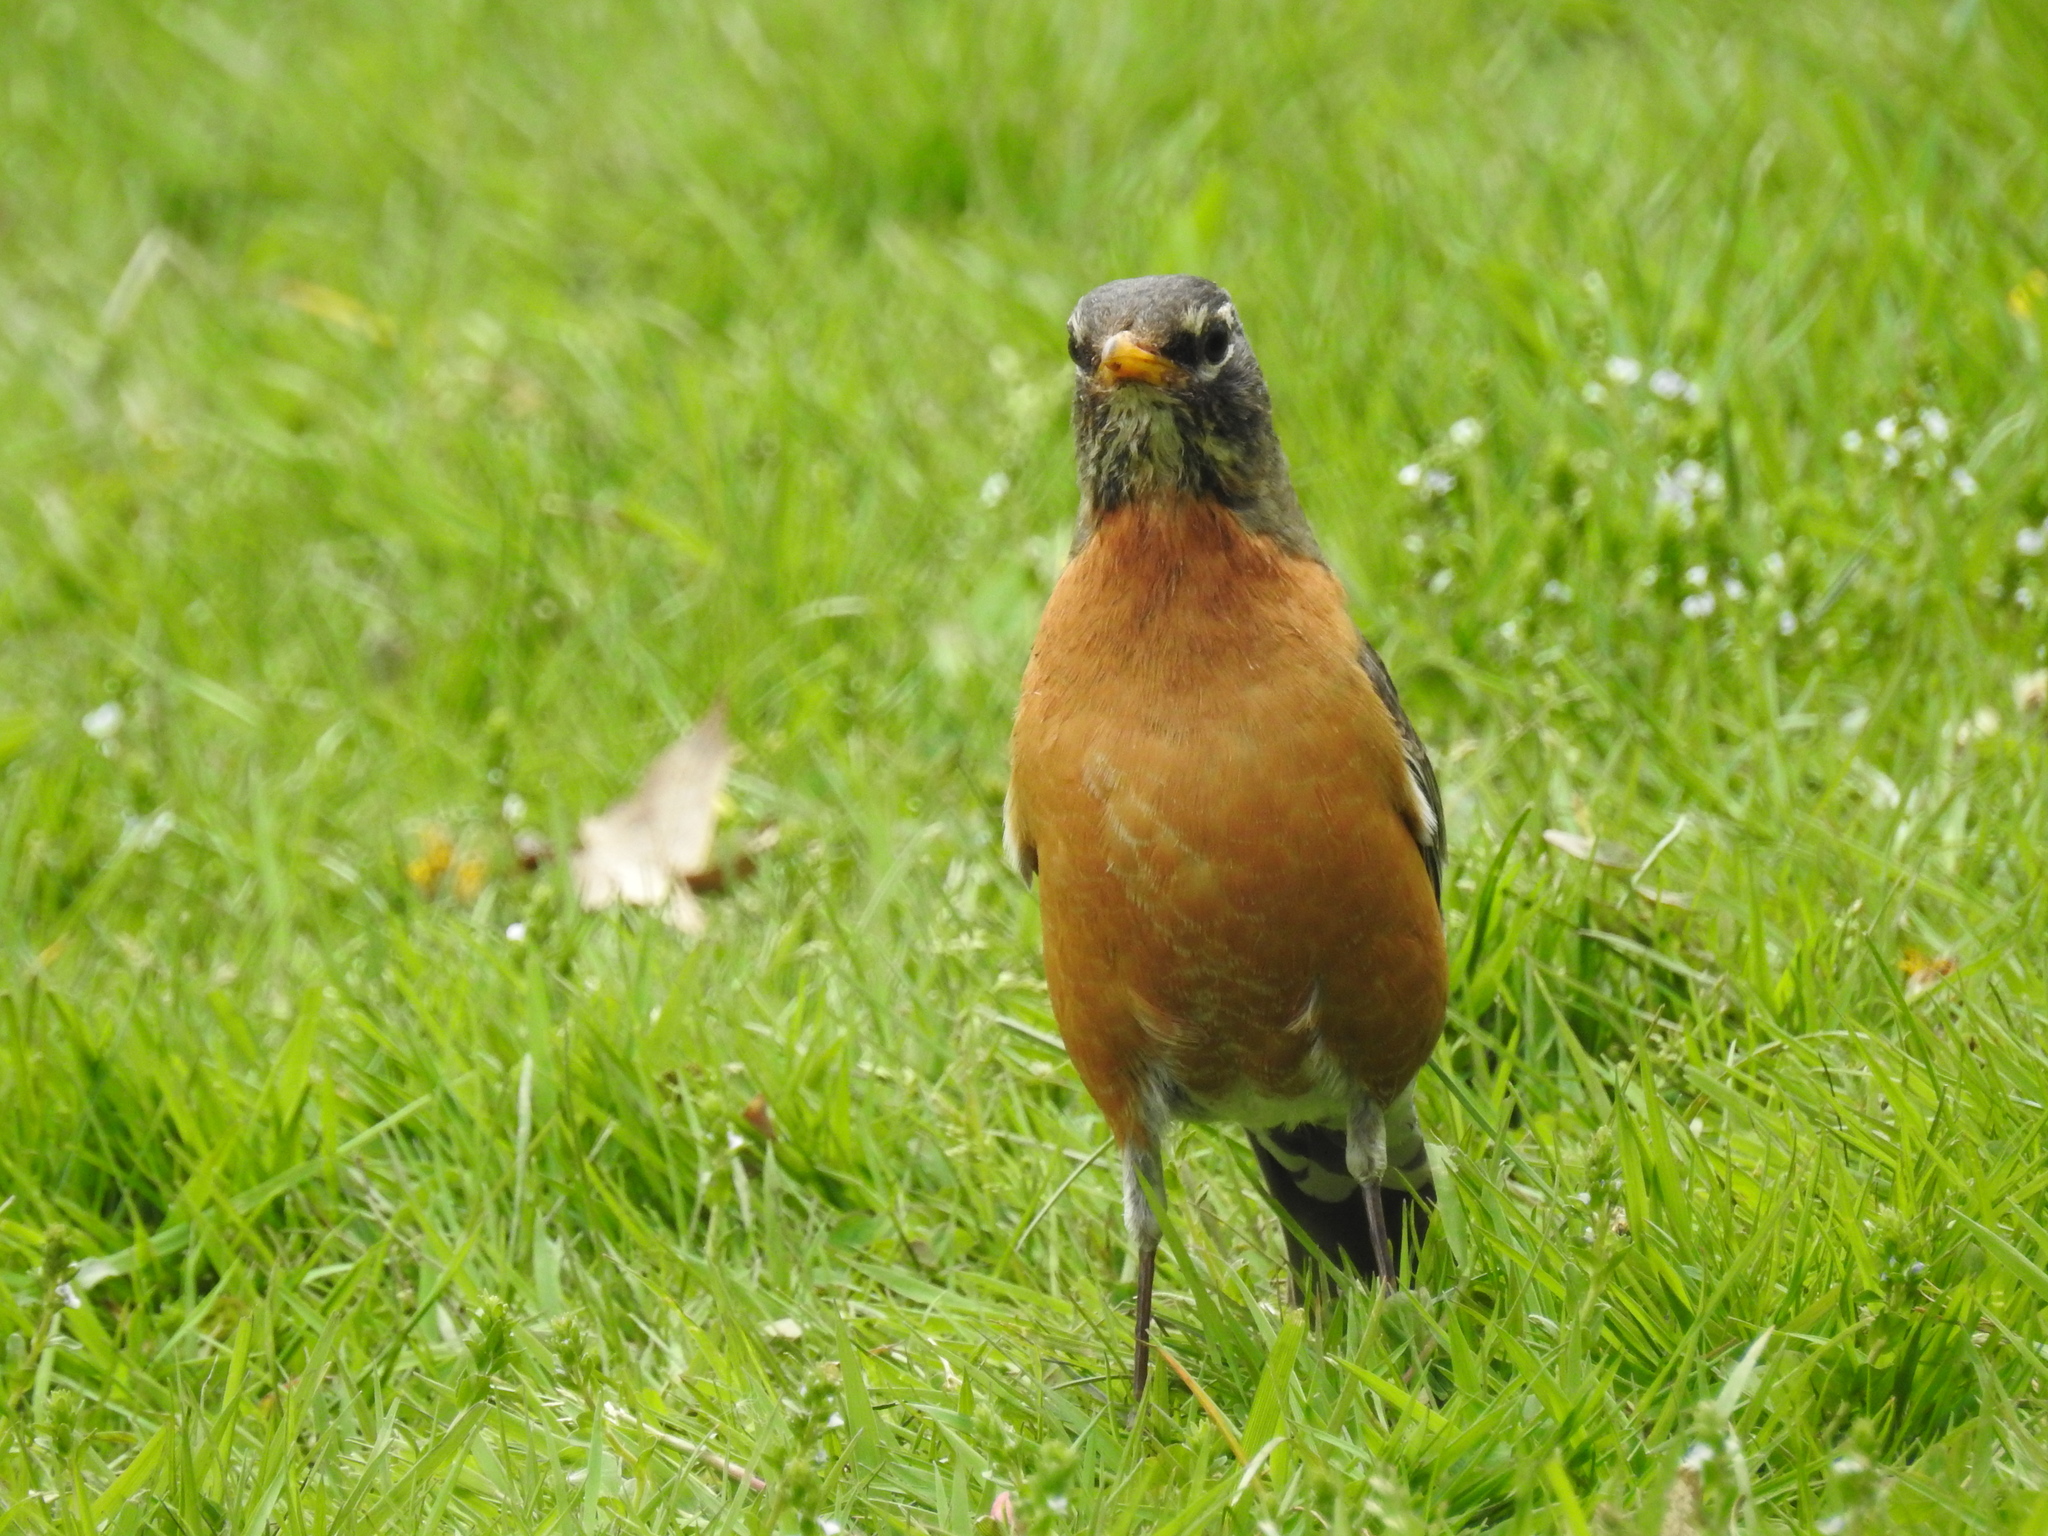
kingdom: Animalia
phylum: Chordata
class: Aves
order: Passeriformes
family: Turdidae
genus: Turdus
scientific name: Turdus migratorius
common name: American robin
